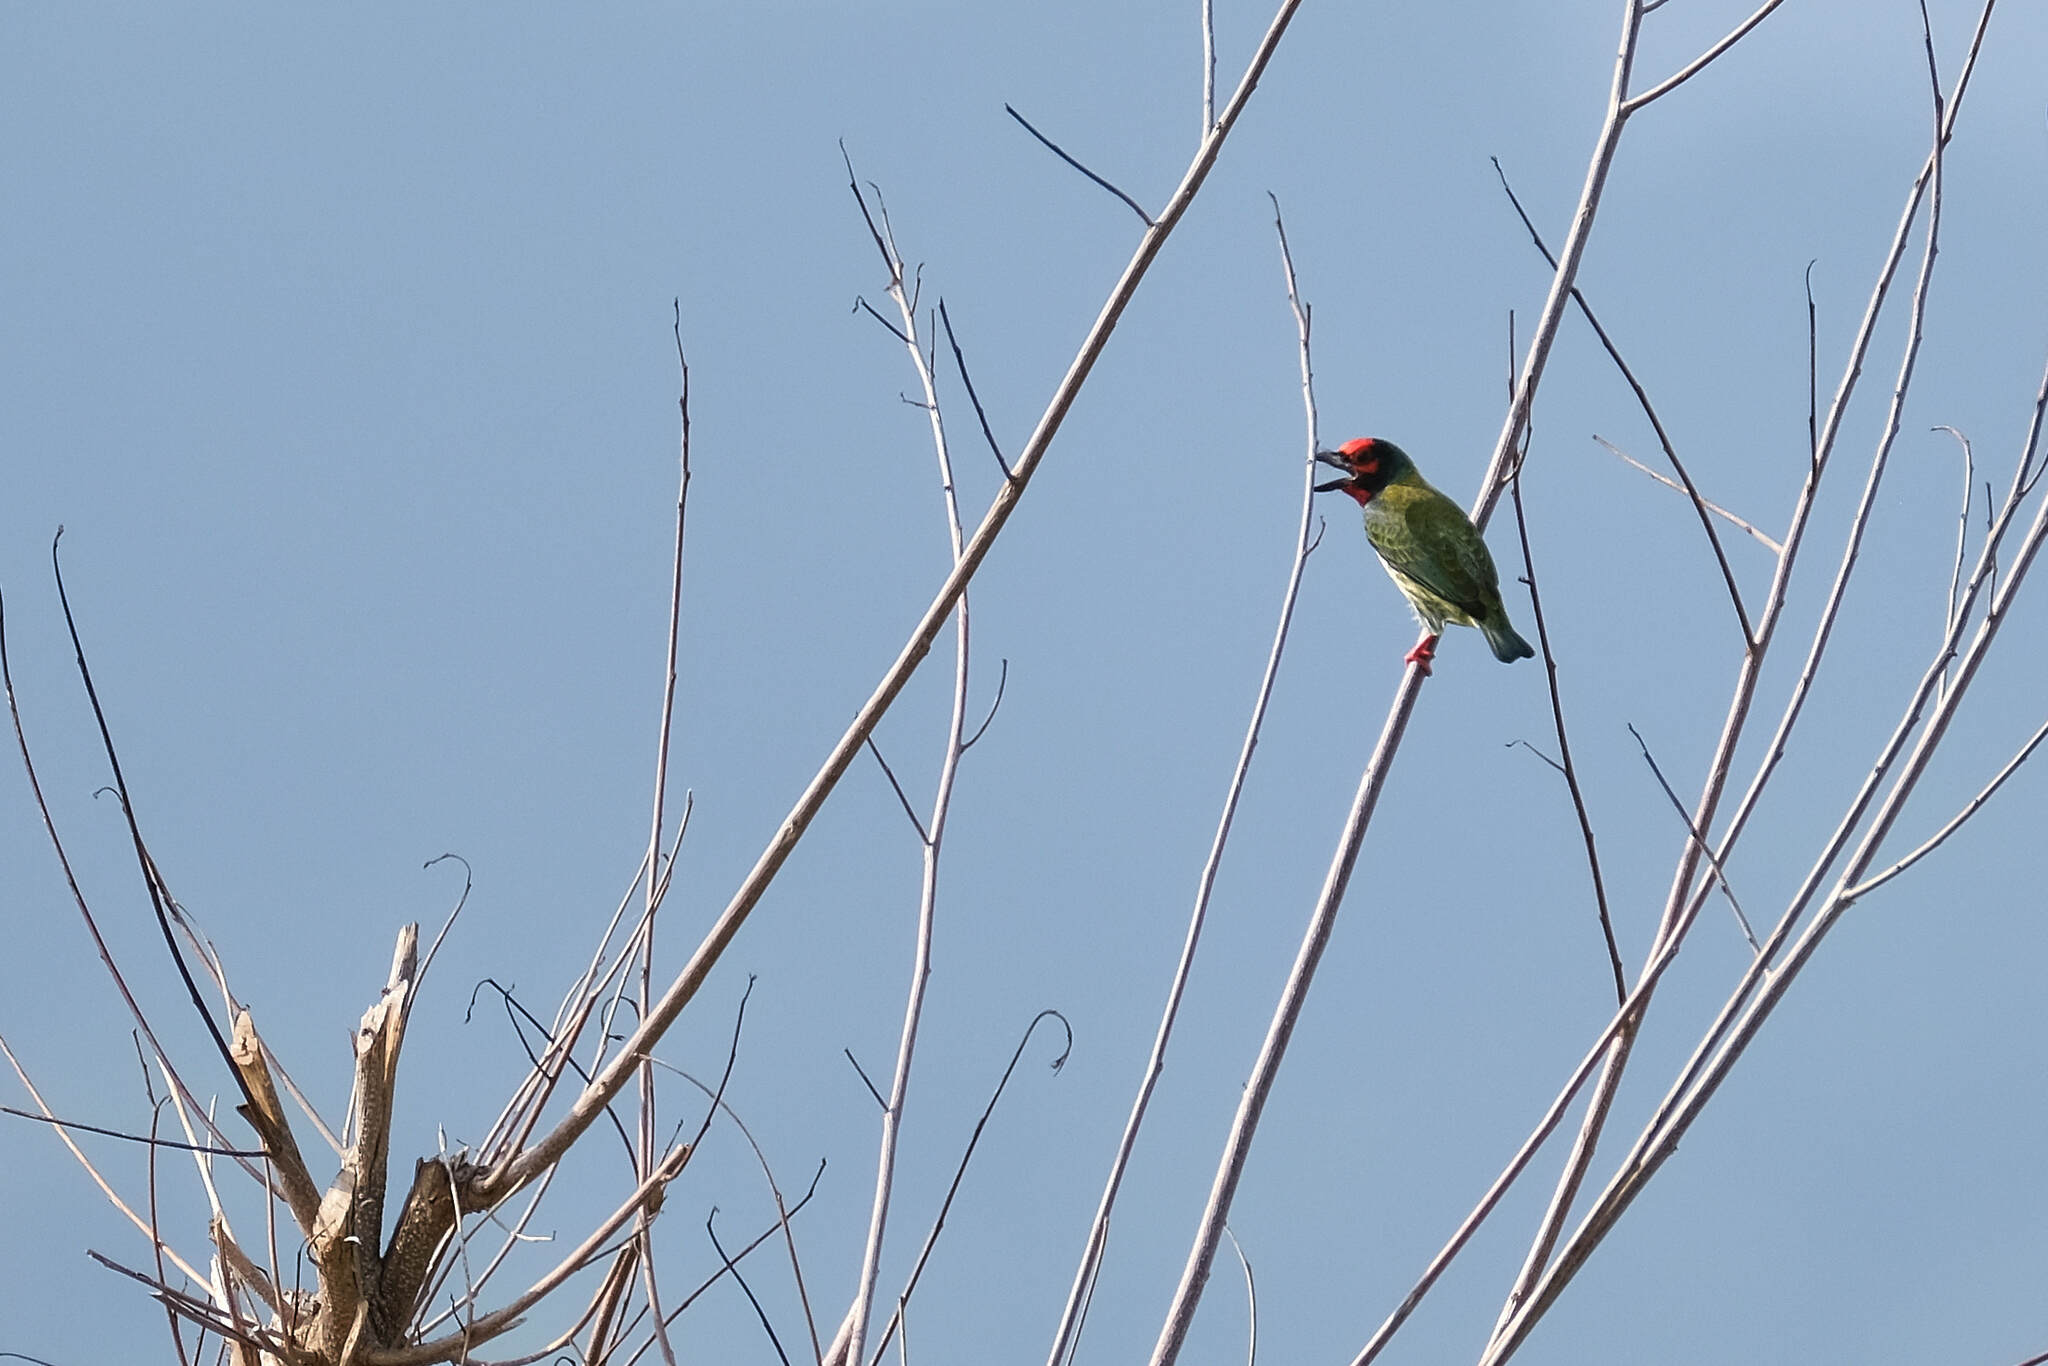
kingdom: Animalia
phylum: Chordata
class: Aves
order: Piciformes
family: Megalaimidae
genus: Psilopogon
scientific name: Psilopogon haemacephalus
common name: Coppersmith barbet
